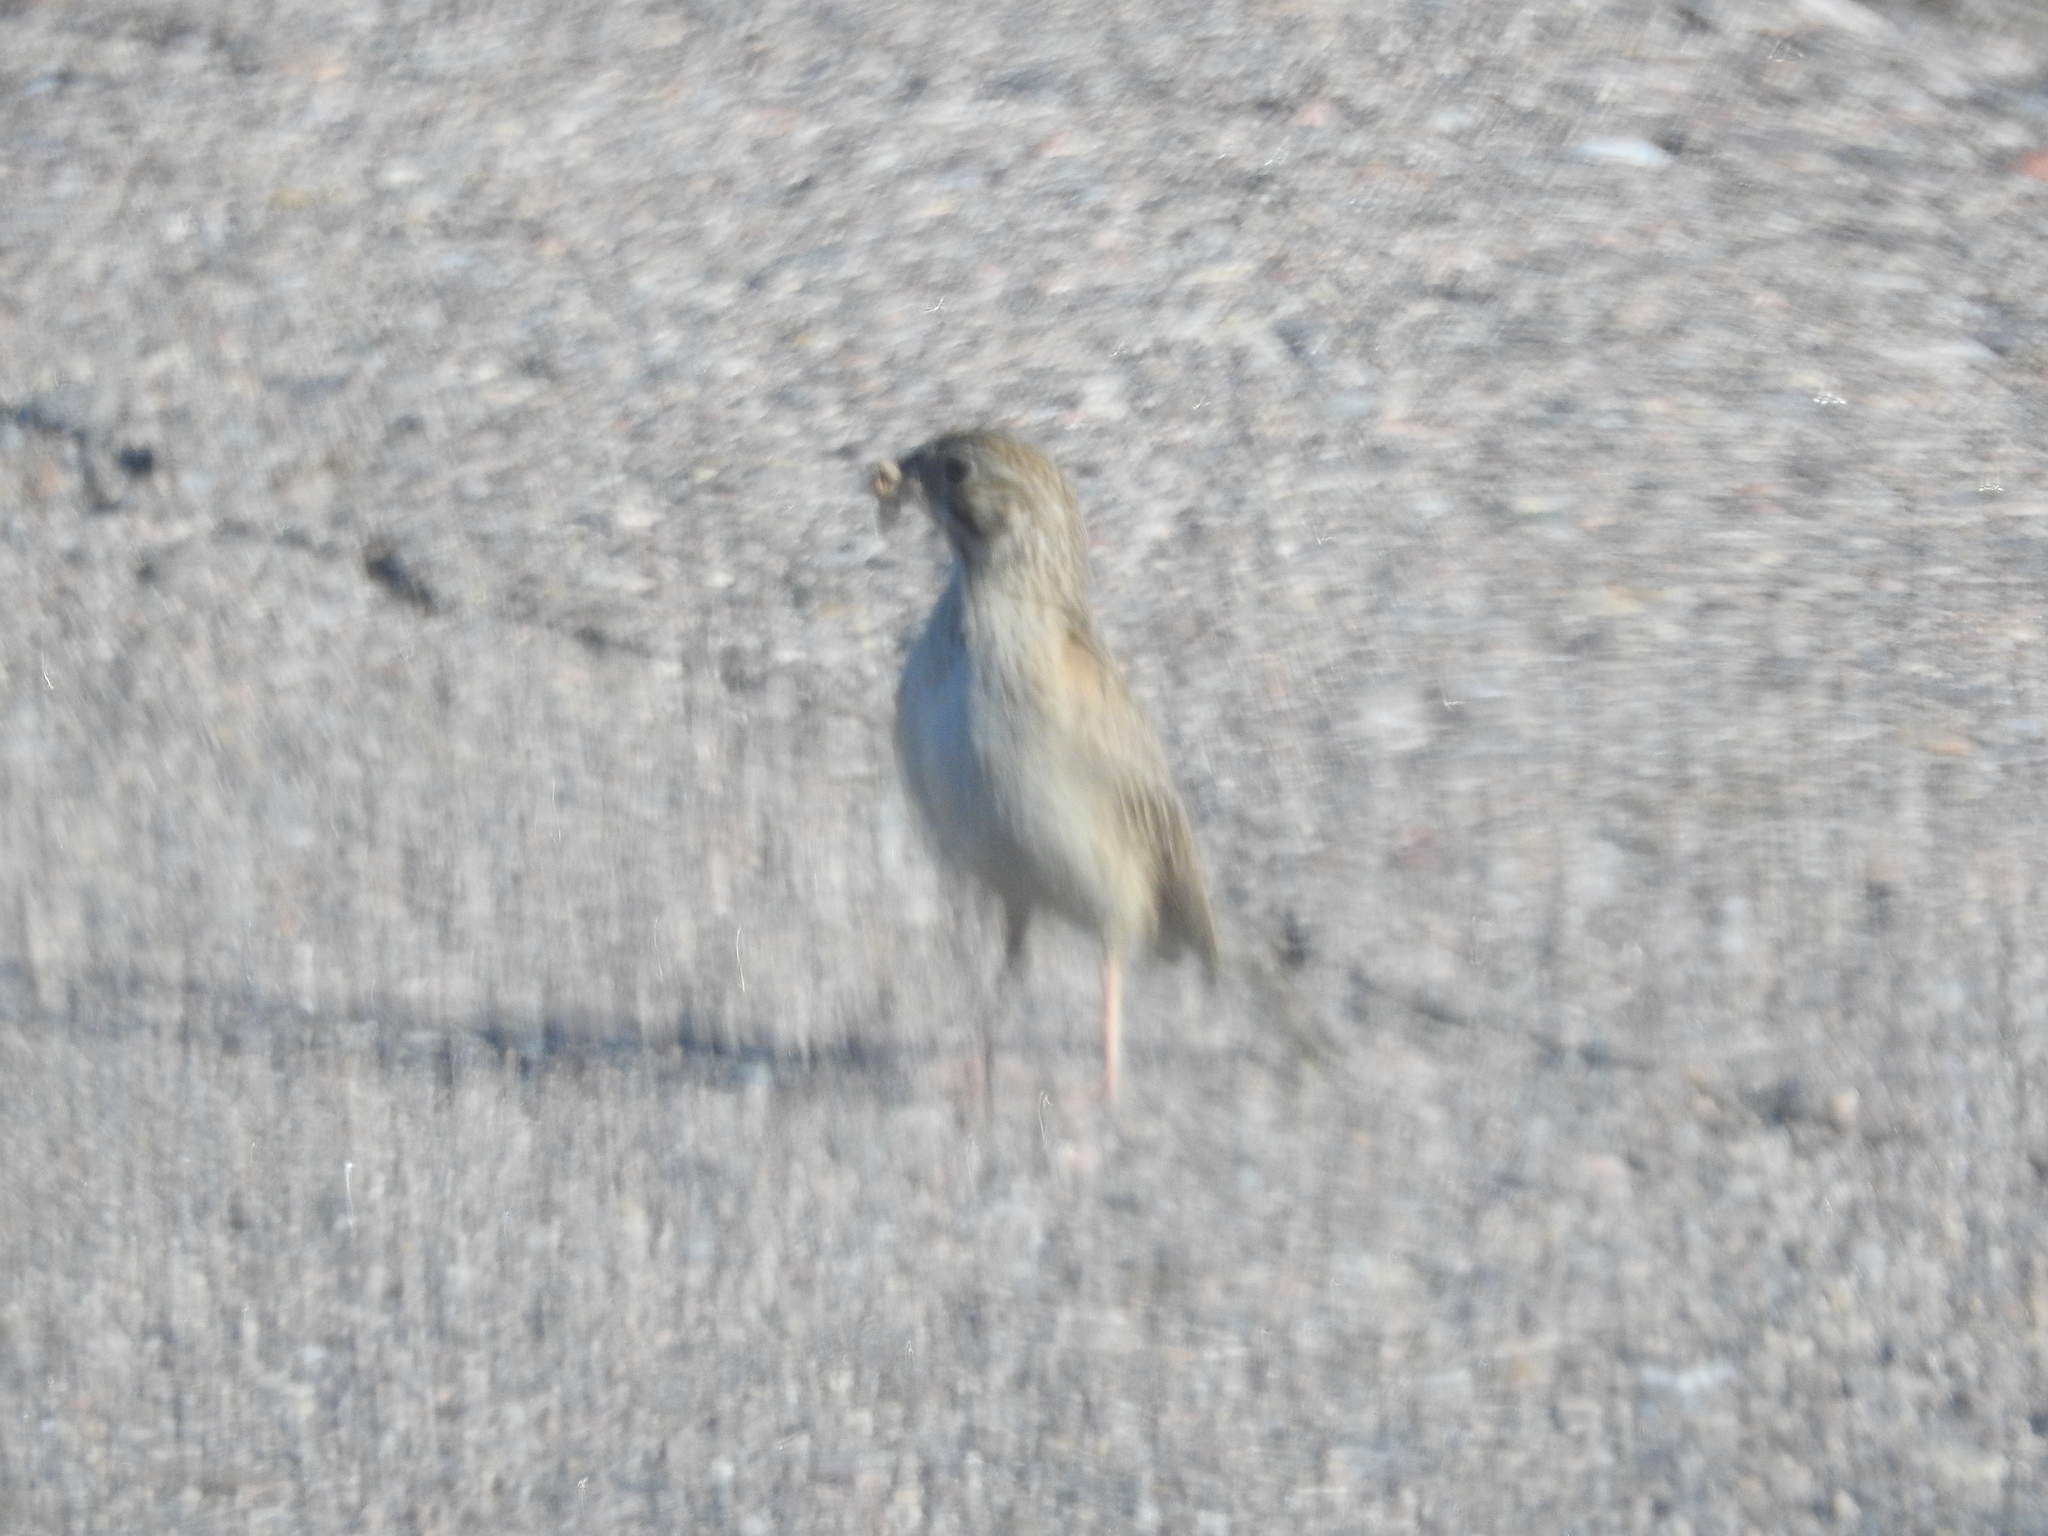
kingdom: Animalia
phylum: Chordata
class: Aves
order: Passeriformes
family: Passerellidae
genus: Pooecetes
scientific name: Pooecetes gramineus
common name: Vesper sparrow
